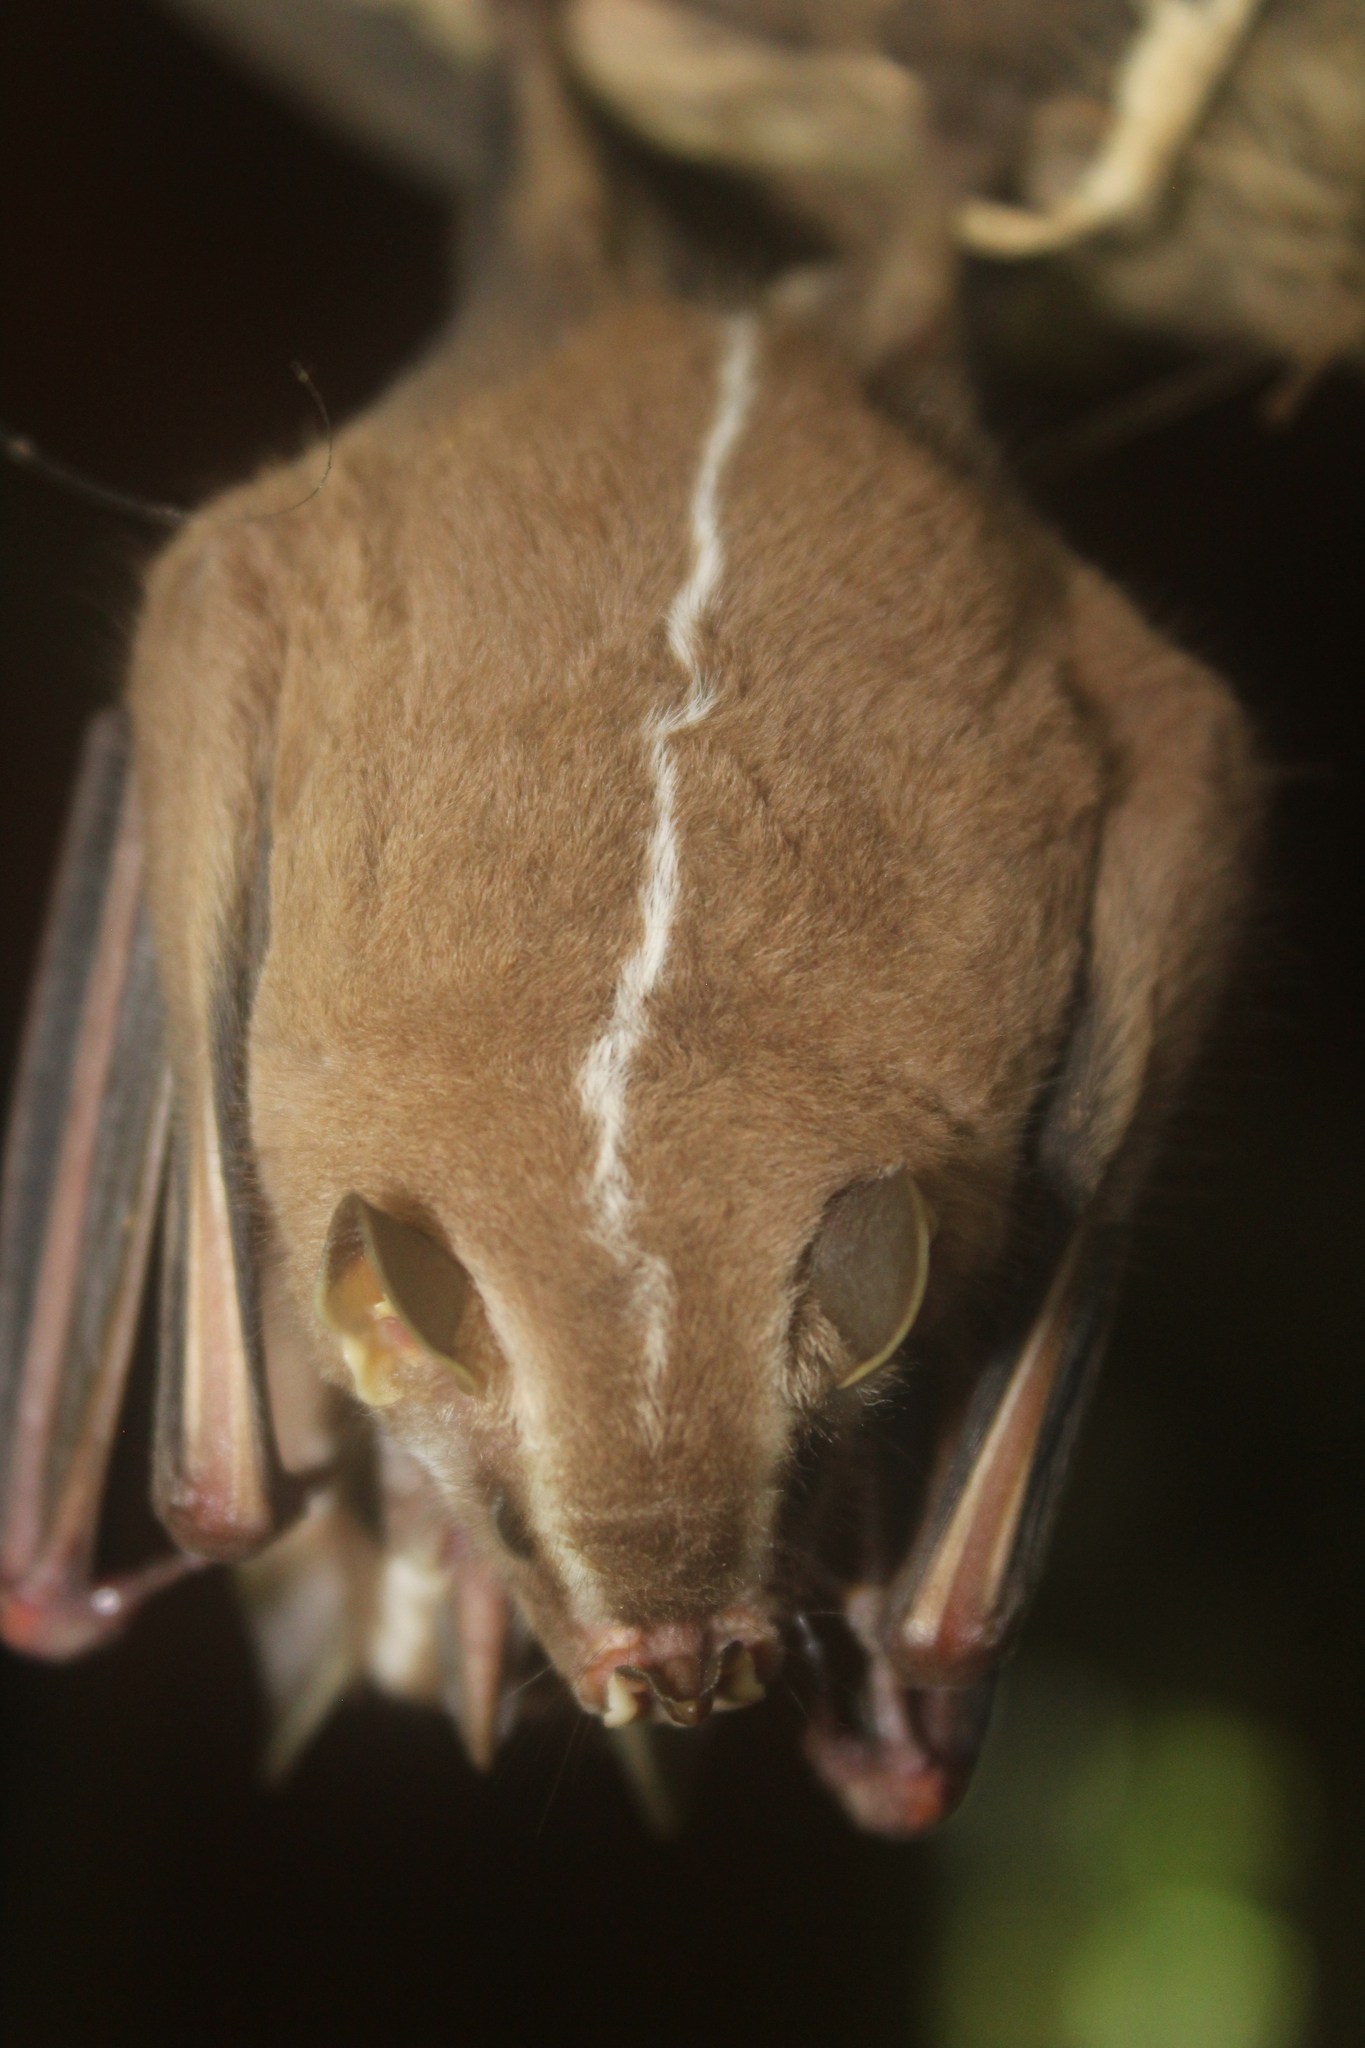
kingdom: Animalia
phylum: Chordata
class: Mammalia
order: Chiroptera
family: Phyllostomidae
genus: Platyrrhinus
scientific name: Platyrrhinus helleri
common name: Heller's broad-nosed bat
